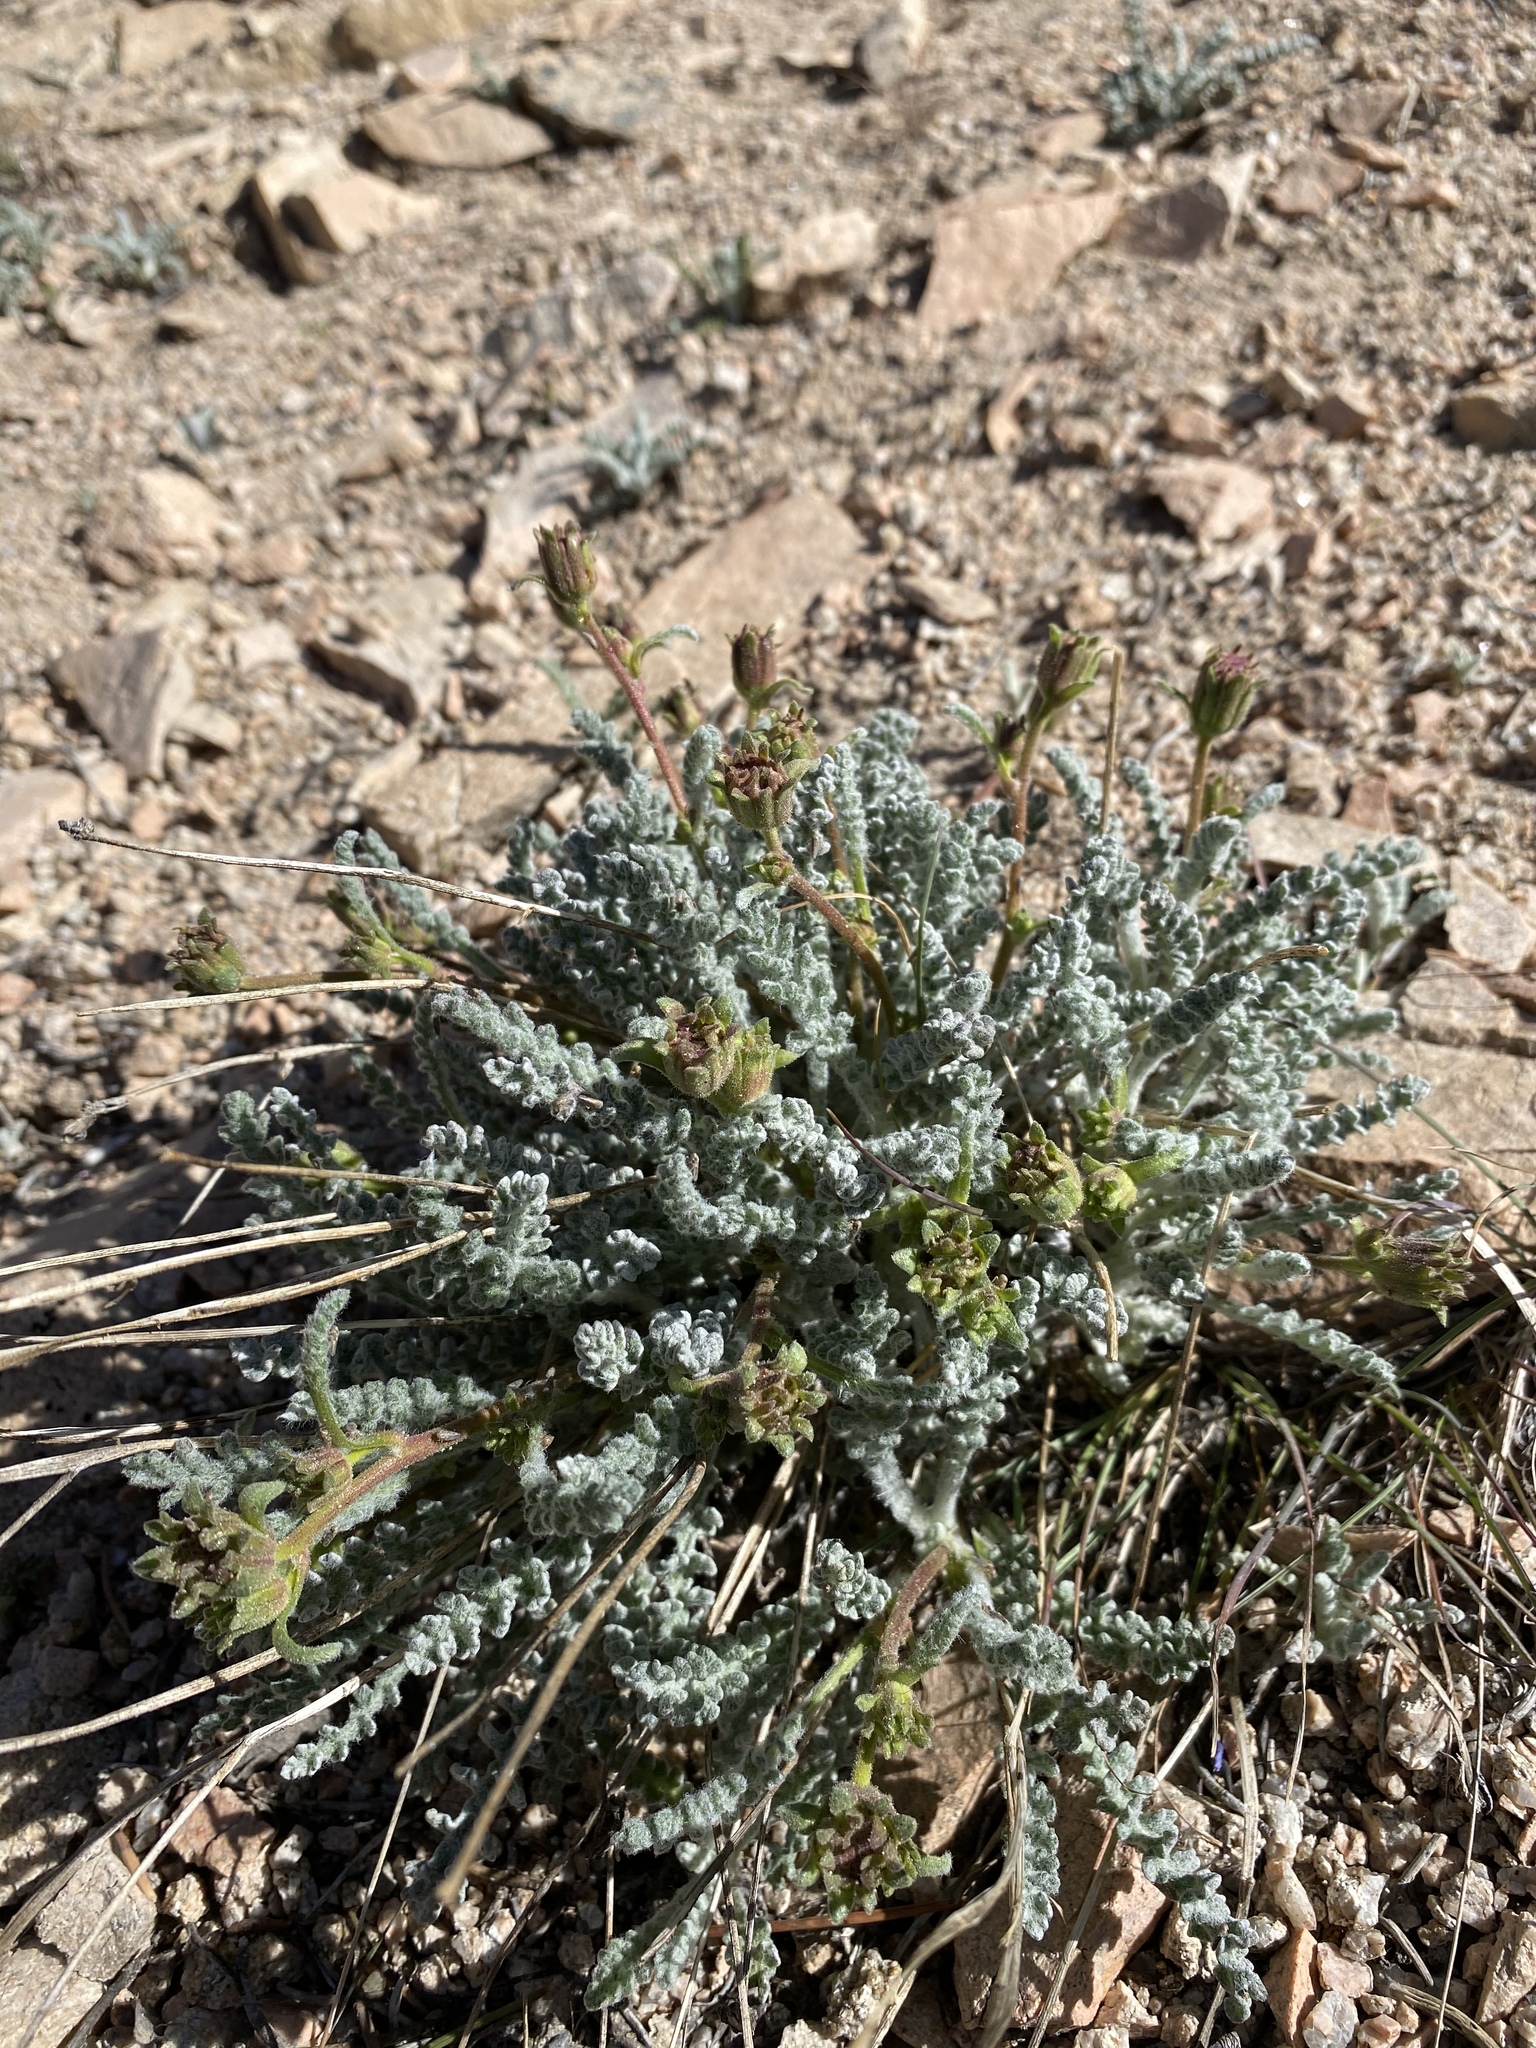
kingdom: Plantae
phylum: Tracheophyta
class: Magnoliopsida
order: Asterales
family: Asteraceae
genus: Chaenactis
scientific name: Chaenactis santolinoides
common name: Santolina pincushion
